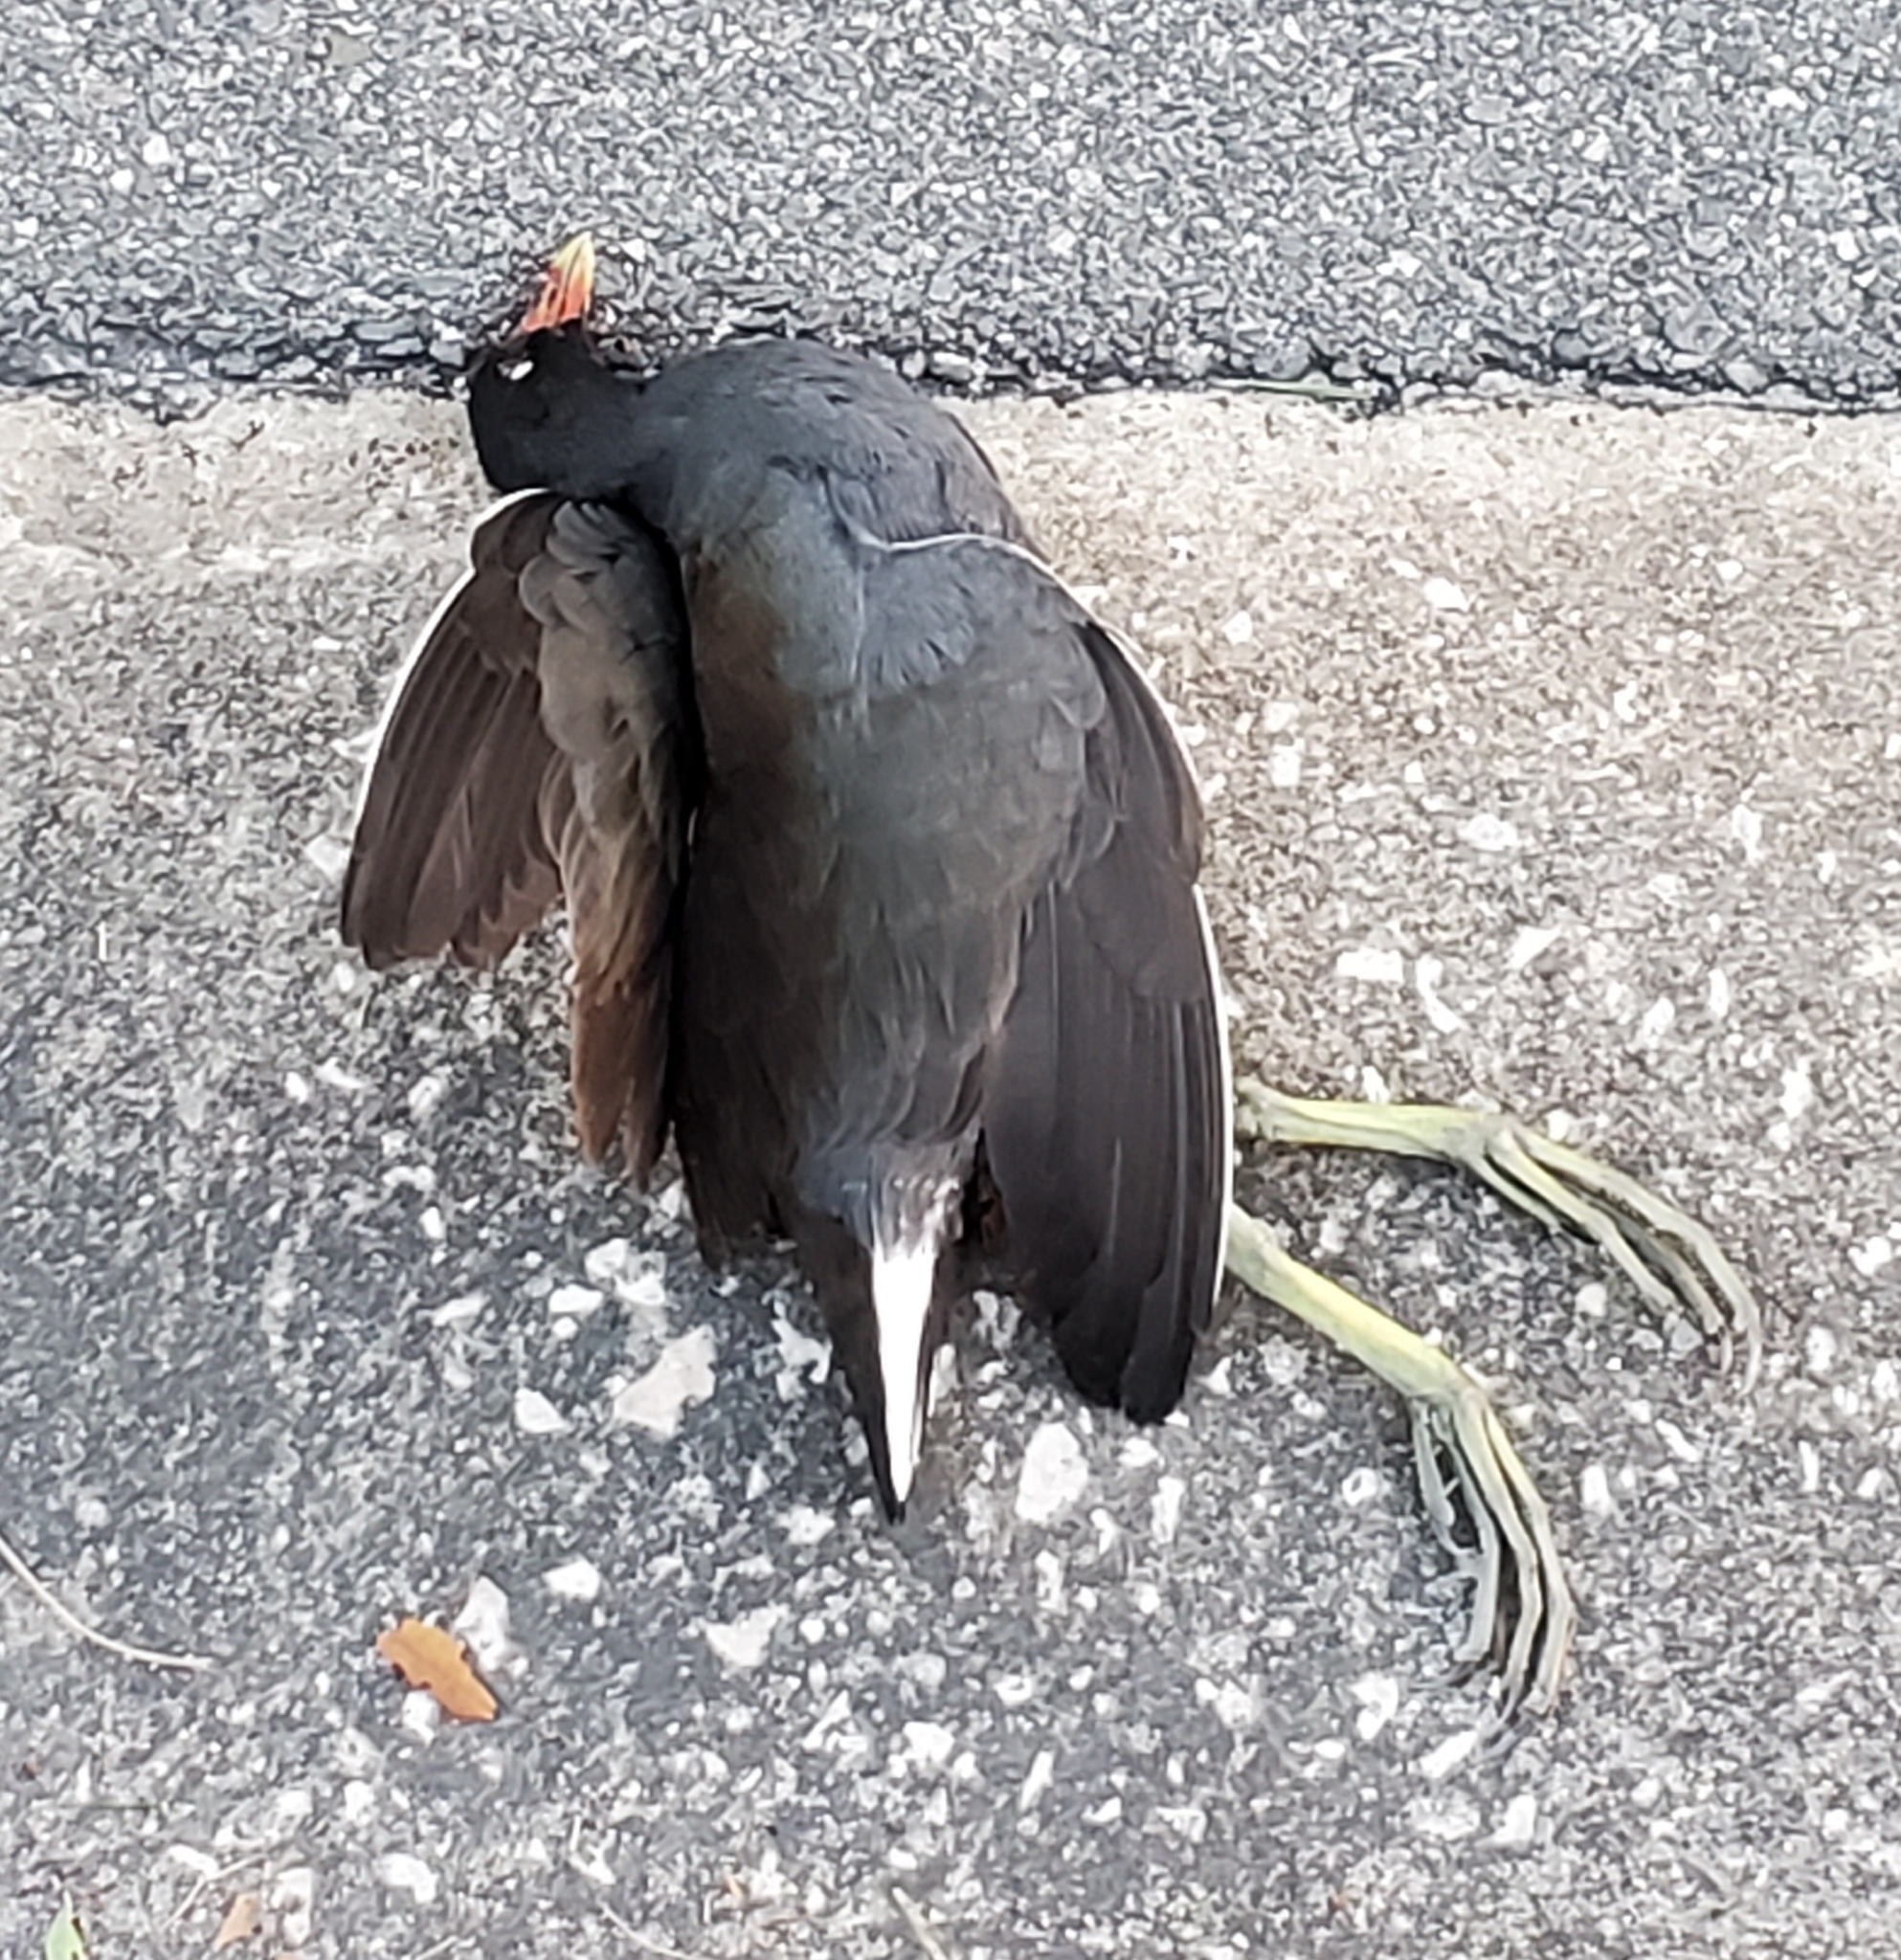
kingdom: Animalia
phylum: Chordata
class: Aves
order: Gruiformes
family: Rallidae
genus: Gallinula
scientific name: Gallinula chloropus
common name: Common moorhen
